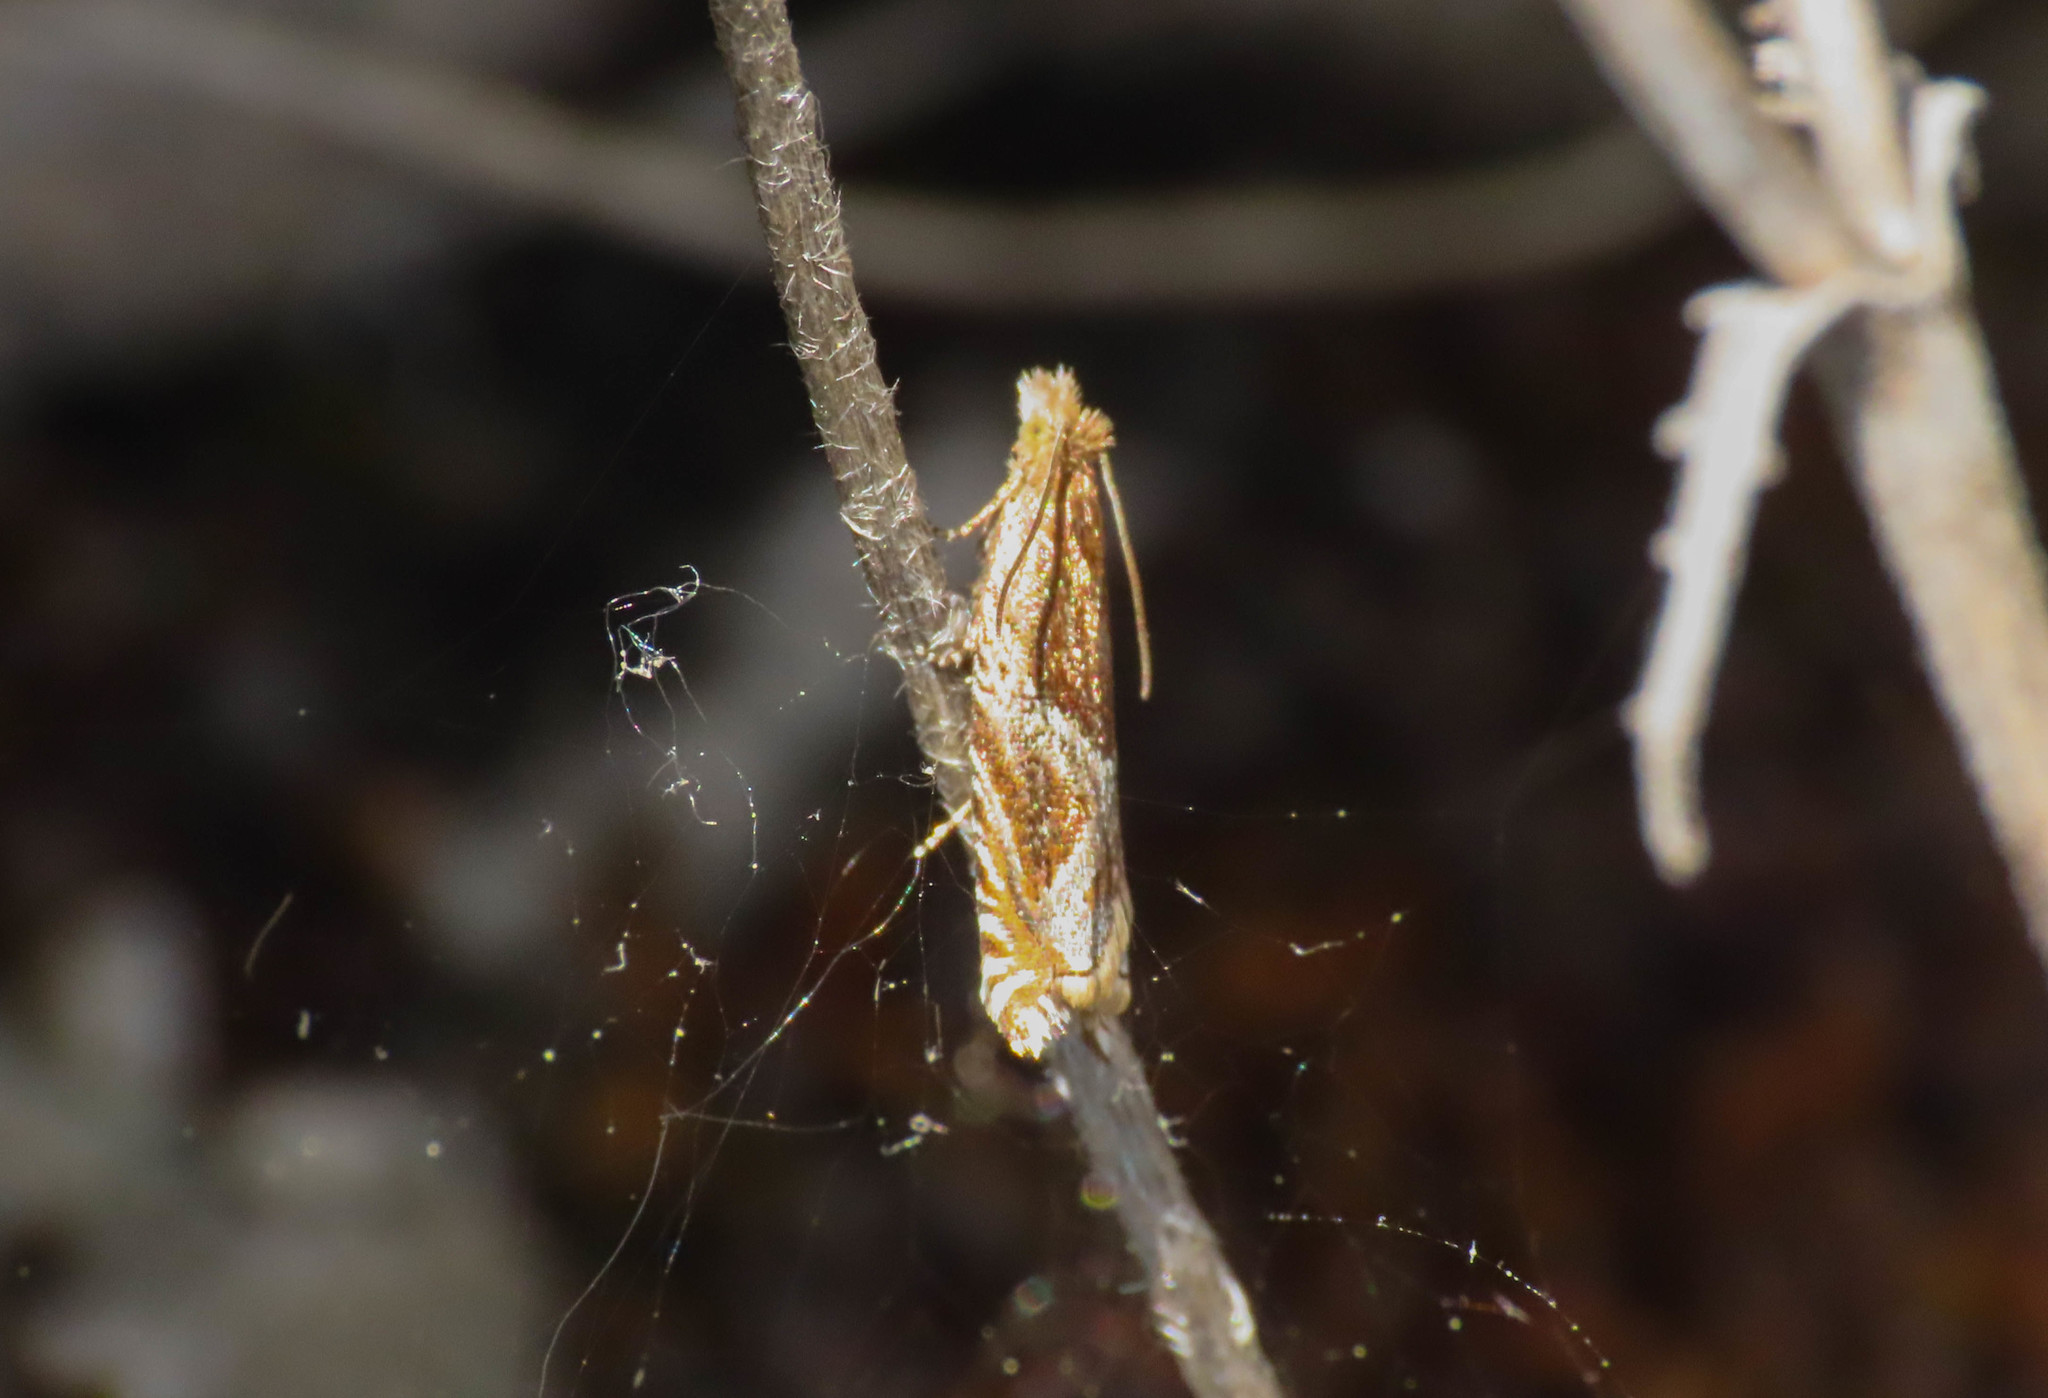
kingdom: Animalia
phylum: Arthropoda
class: Insecta
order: Lepidoptera
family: Tortricidae
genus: Ancylis
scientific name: Ancylis obtusana
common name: Small buckthorn roller
